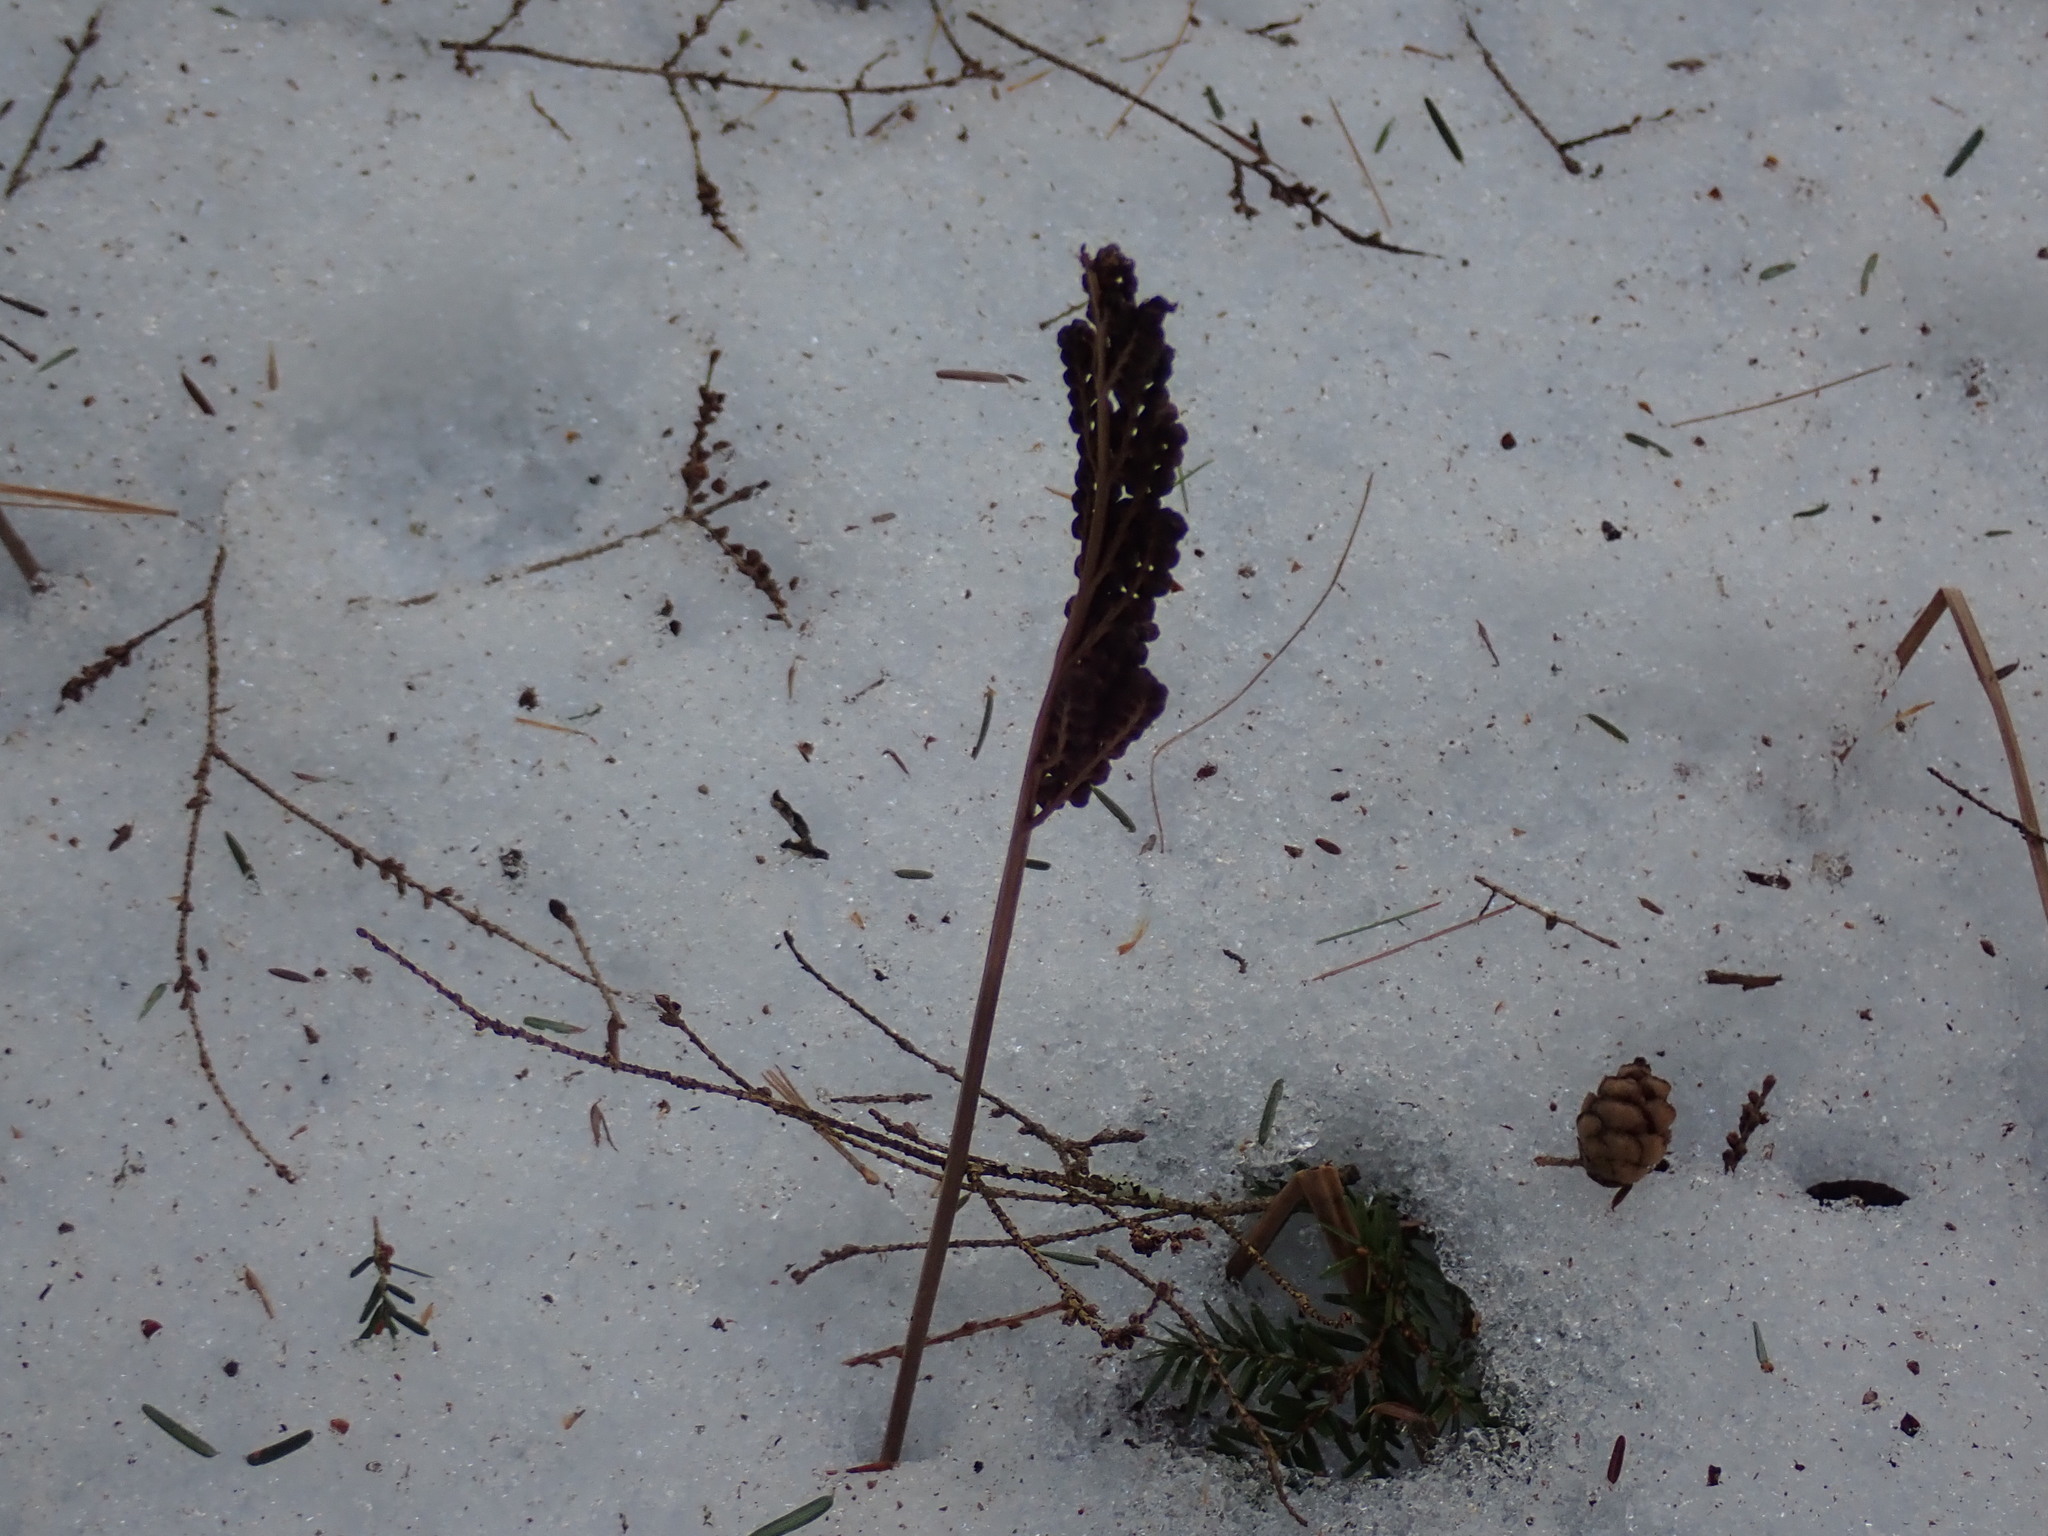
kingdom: Plantae
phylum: Tracheophyta
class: Polypodiopsida
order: Polypodiales
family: Onocleaceae
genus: Onoclea
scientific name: Onoclea sensibilis
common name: Sensitive fern
